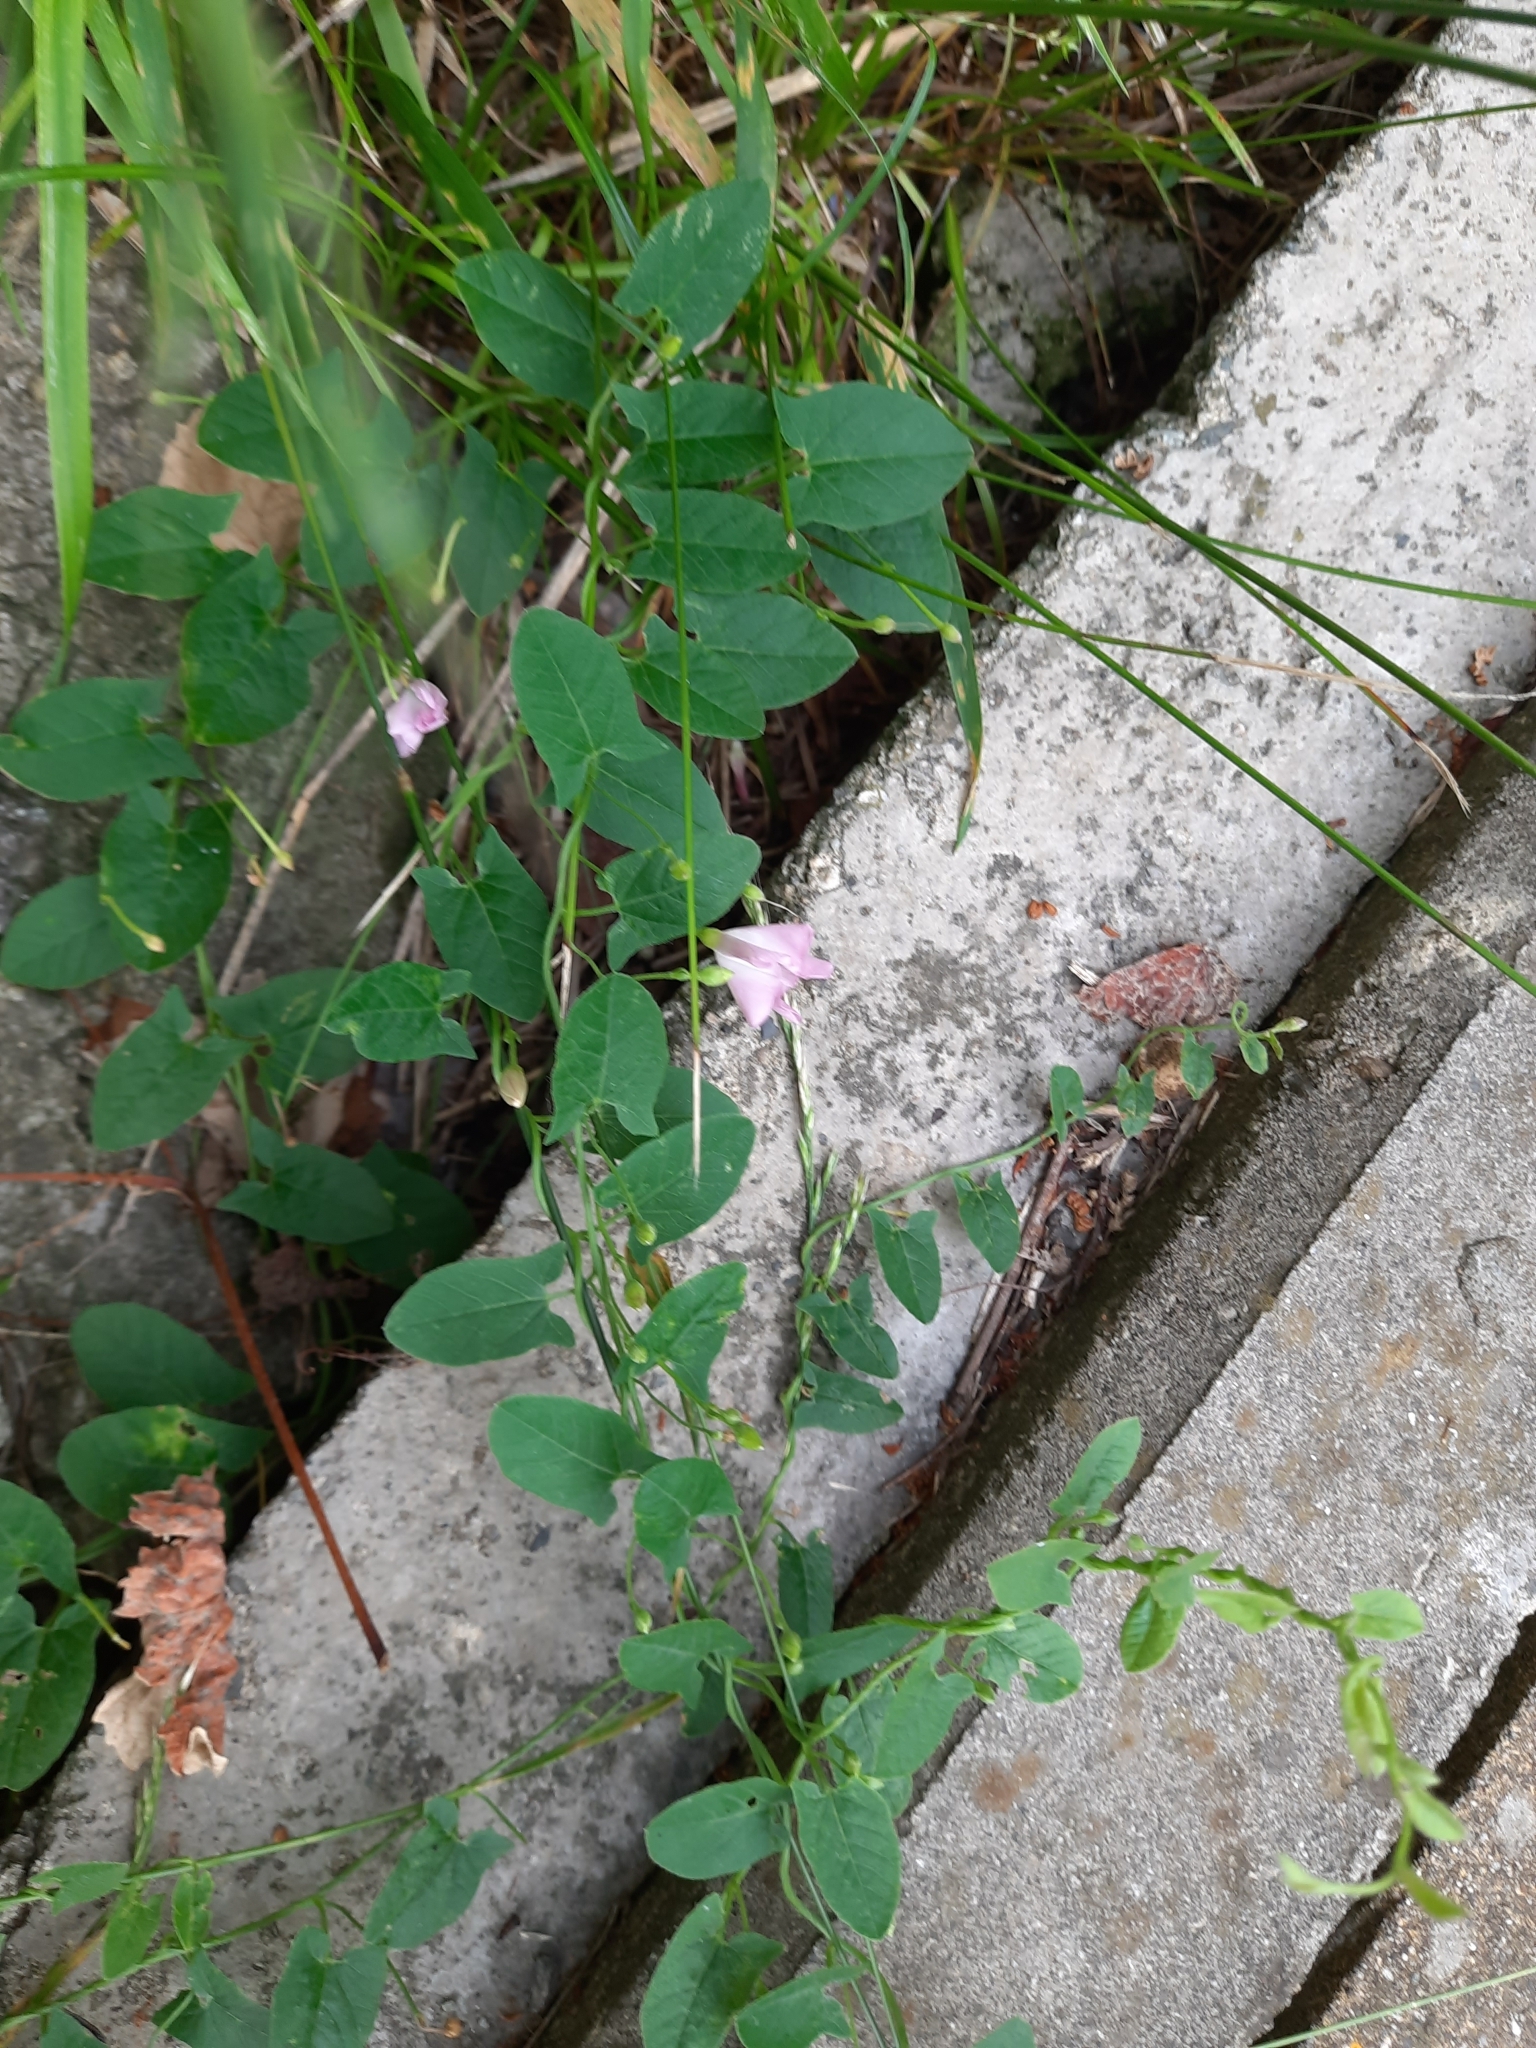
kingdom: Plantae
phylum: Tracheophyta
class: Magnoliopsida
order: Solanales
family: Convolvulaceae
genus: Convolvulus
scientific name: Convolvulus arvensis
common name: Field bindweed
